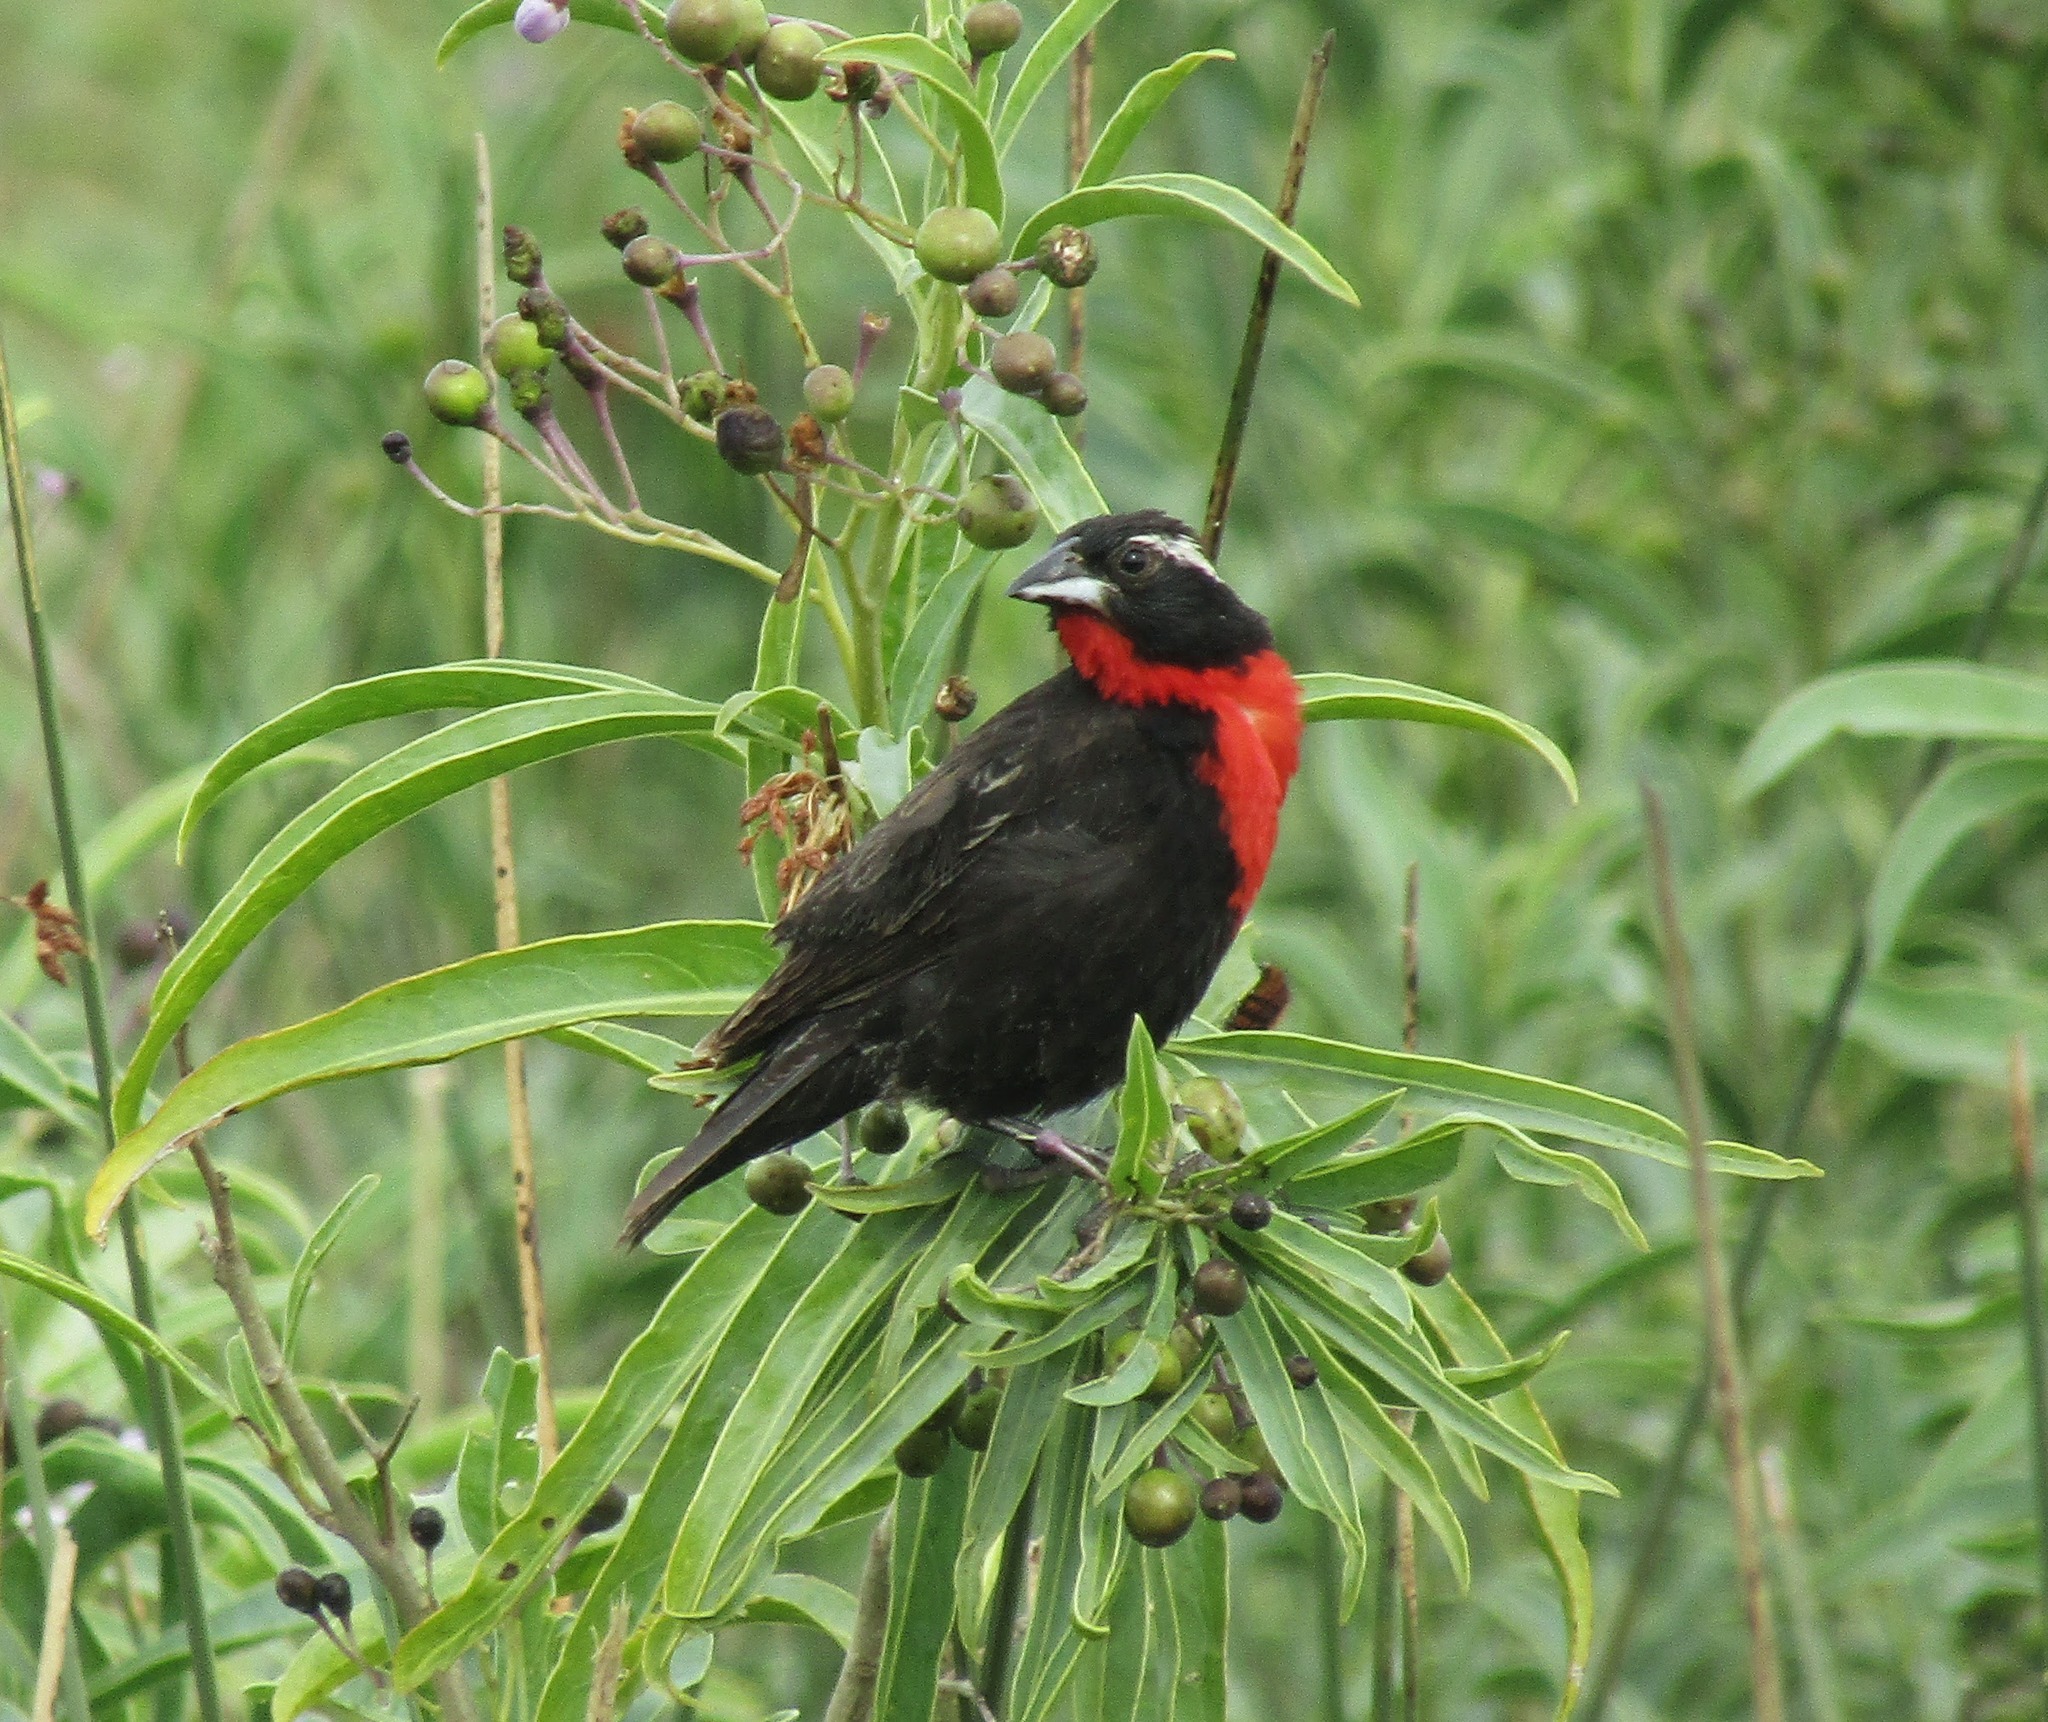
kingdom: Animalia
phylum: Chordata
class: Aves
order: Passeriformes
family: Icteridae
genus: Sturnella
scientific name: Sturnella superciliaris
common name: White-browed blackbird
